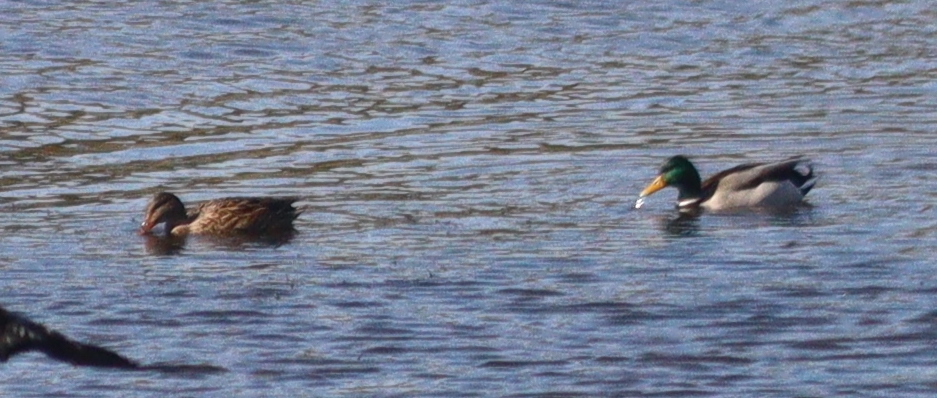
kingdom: Animalia
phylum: Chordata
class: Aves
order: Anseriformes
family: Anatidae
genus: Anas
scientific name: Anas platyrhynchos
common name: Mallard
